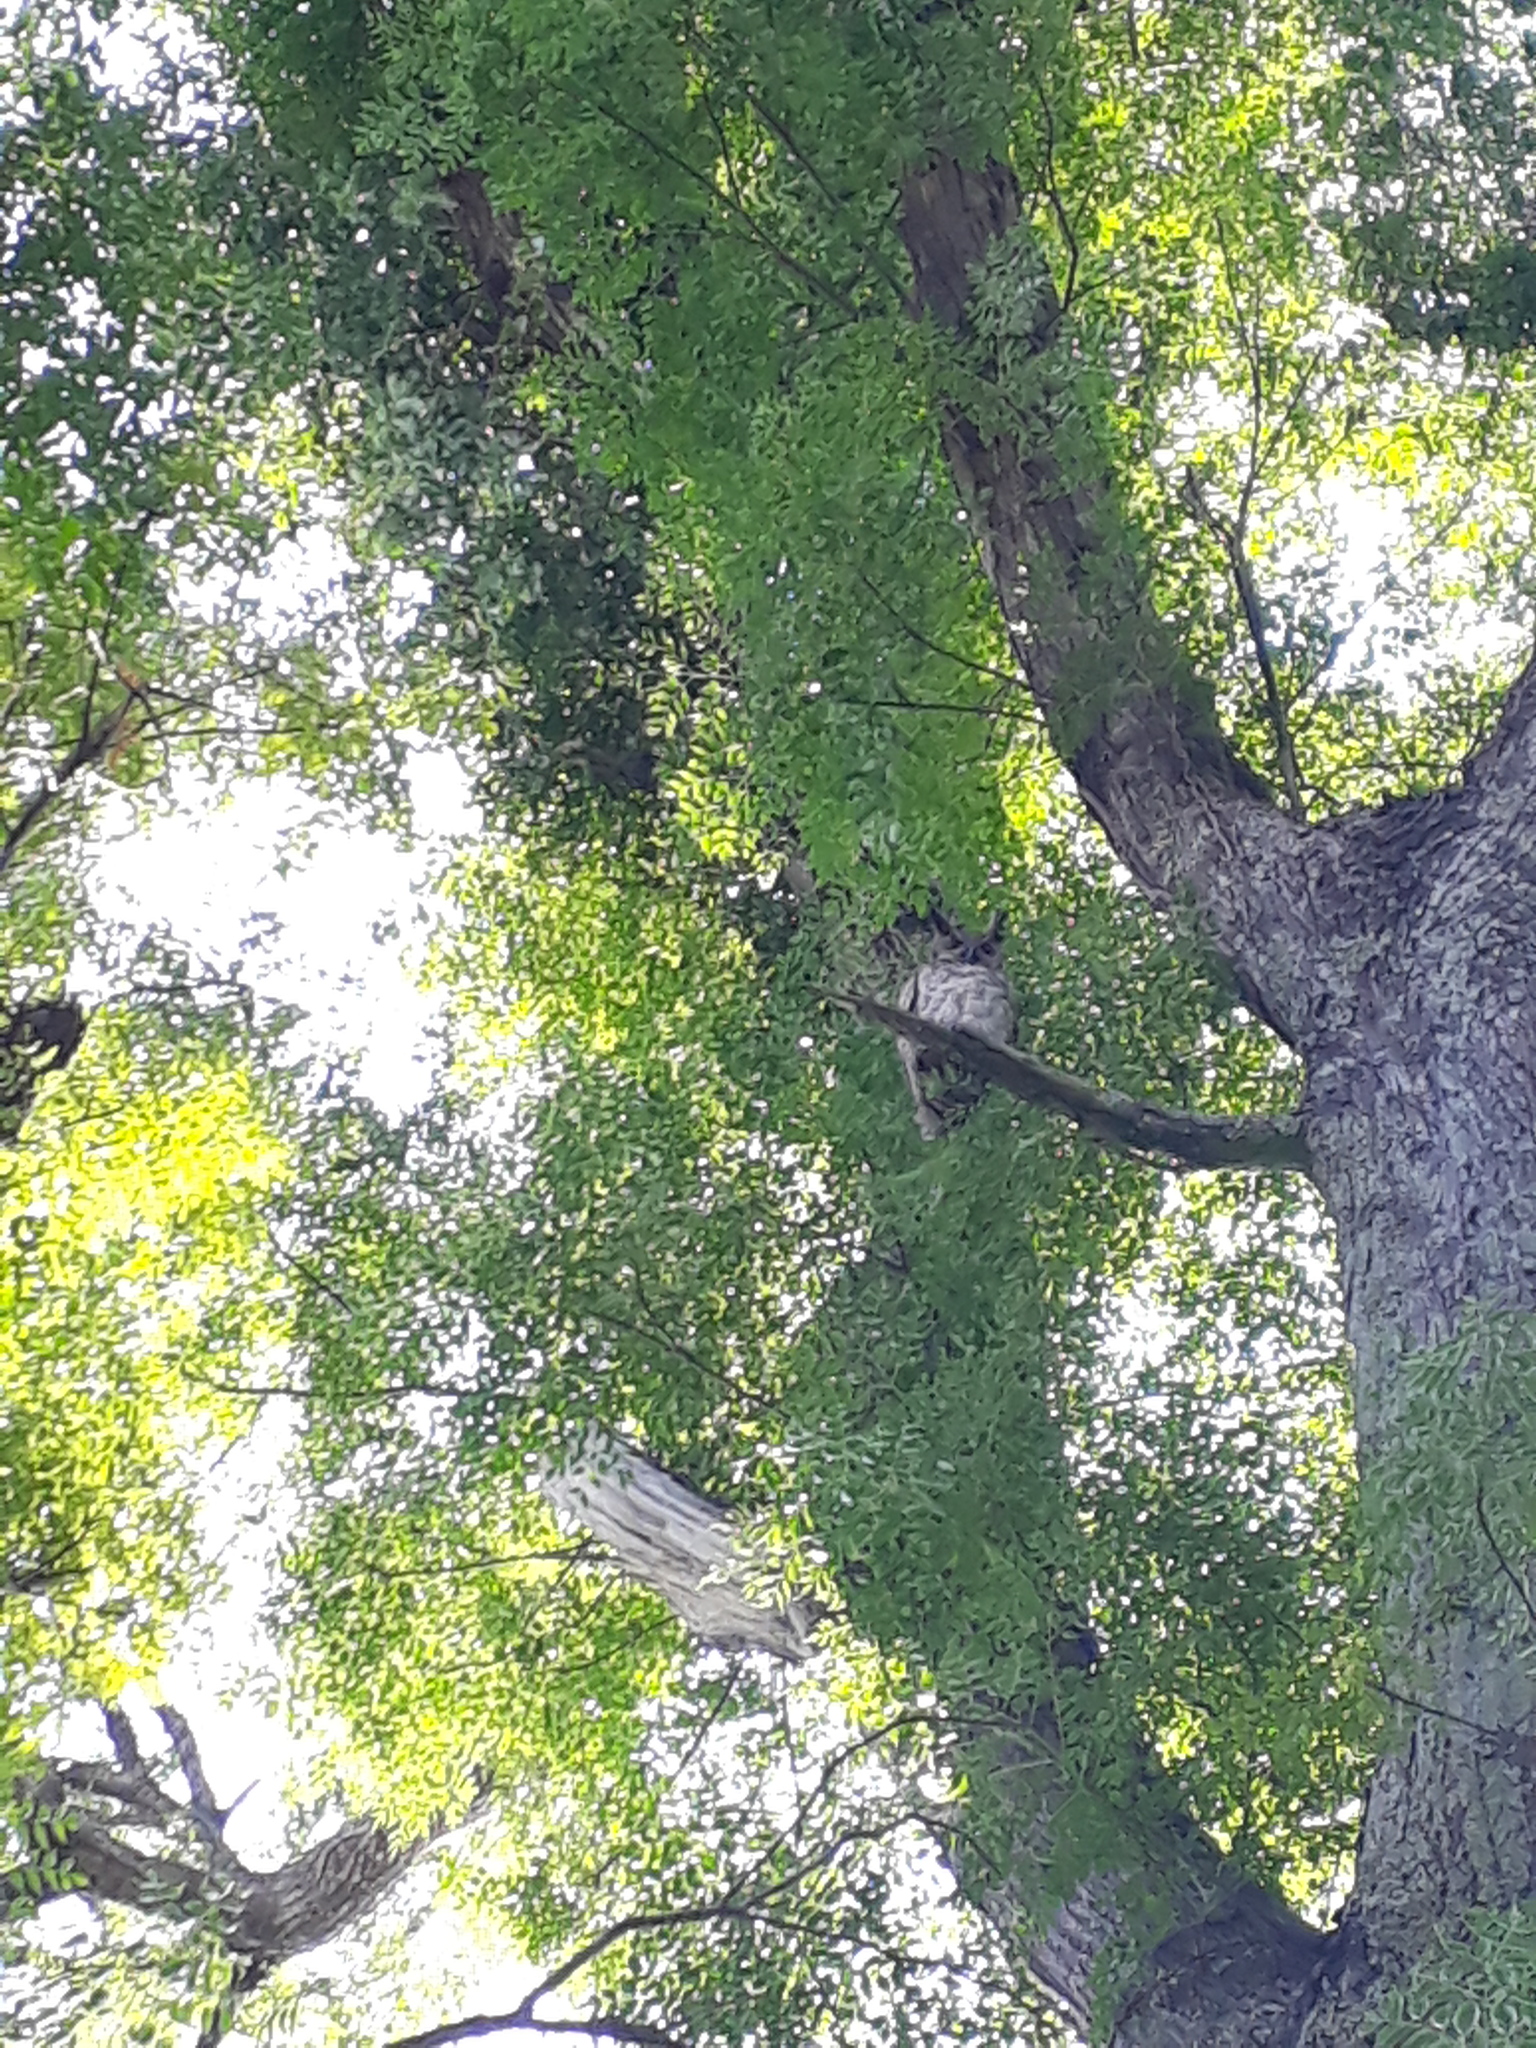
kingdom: Animalia
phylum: Chordata
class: Aves
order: Strigiformes
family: Strigidae
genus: Bubo
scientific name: Bubo virginianus
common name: Great horned owl
